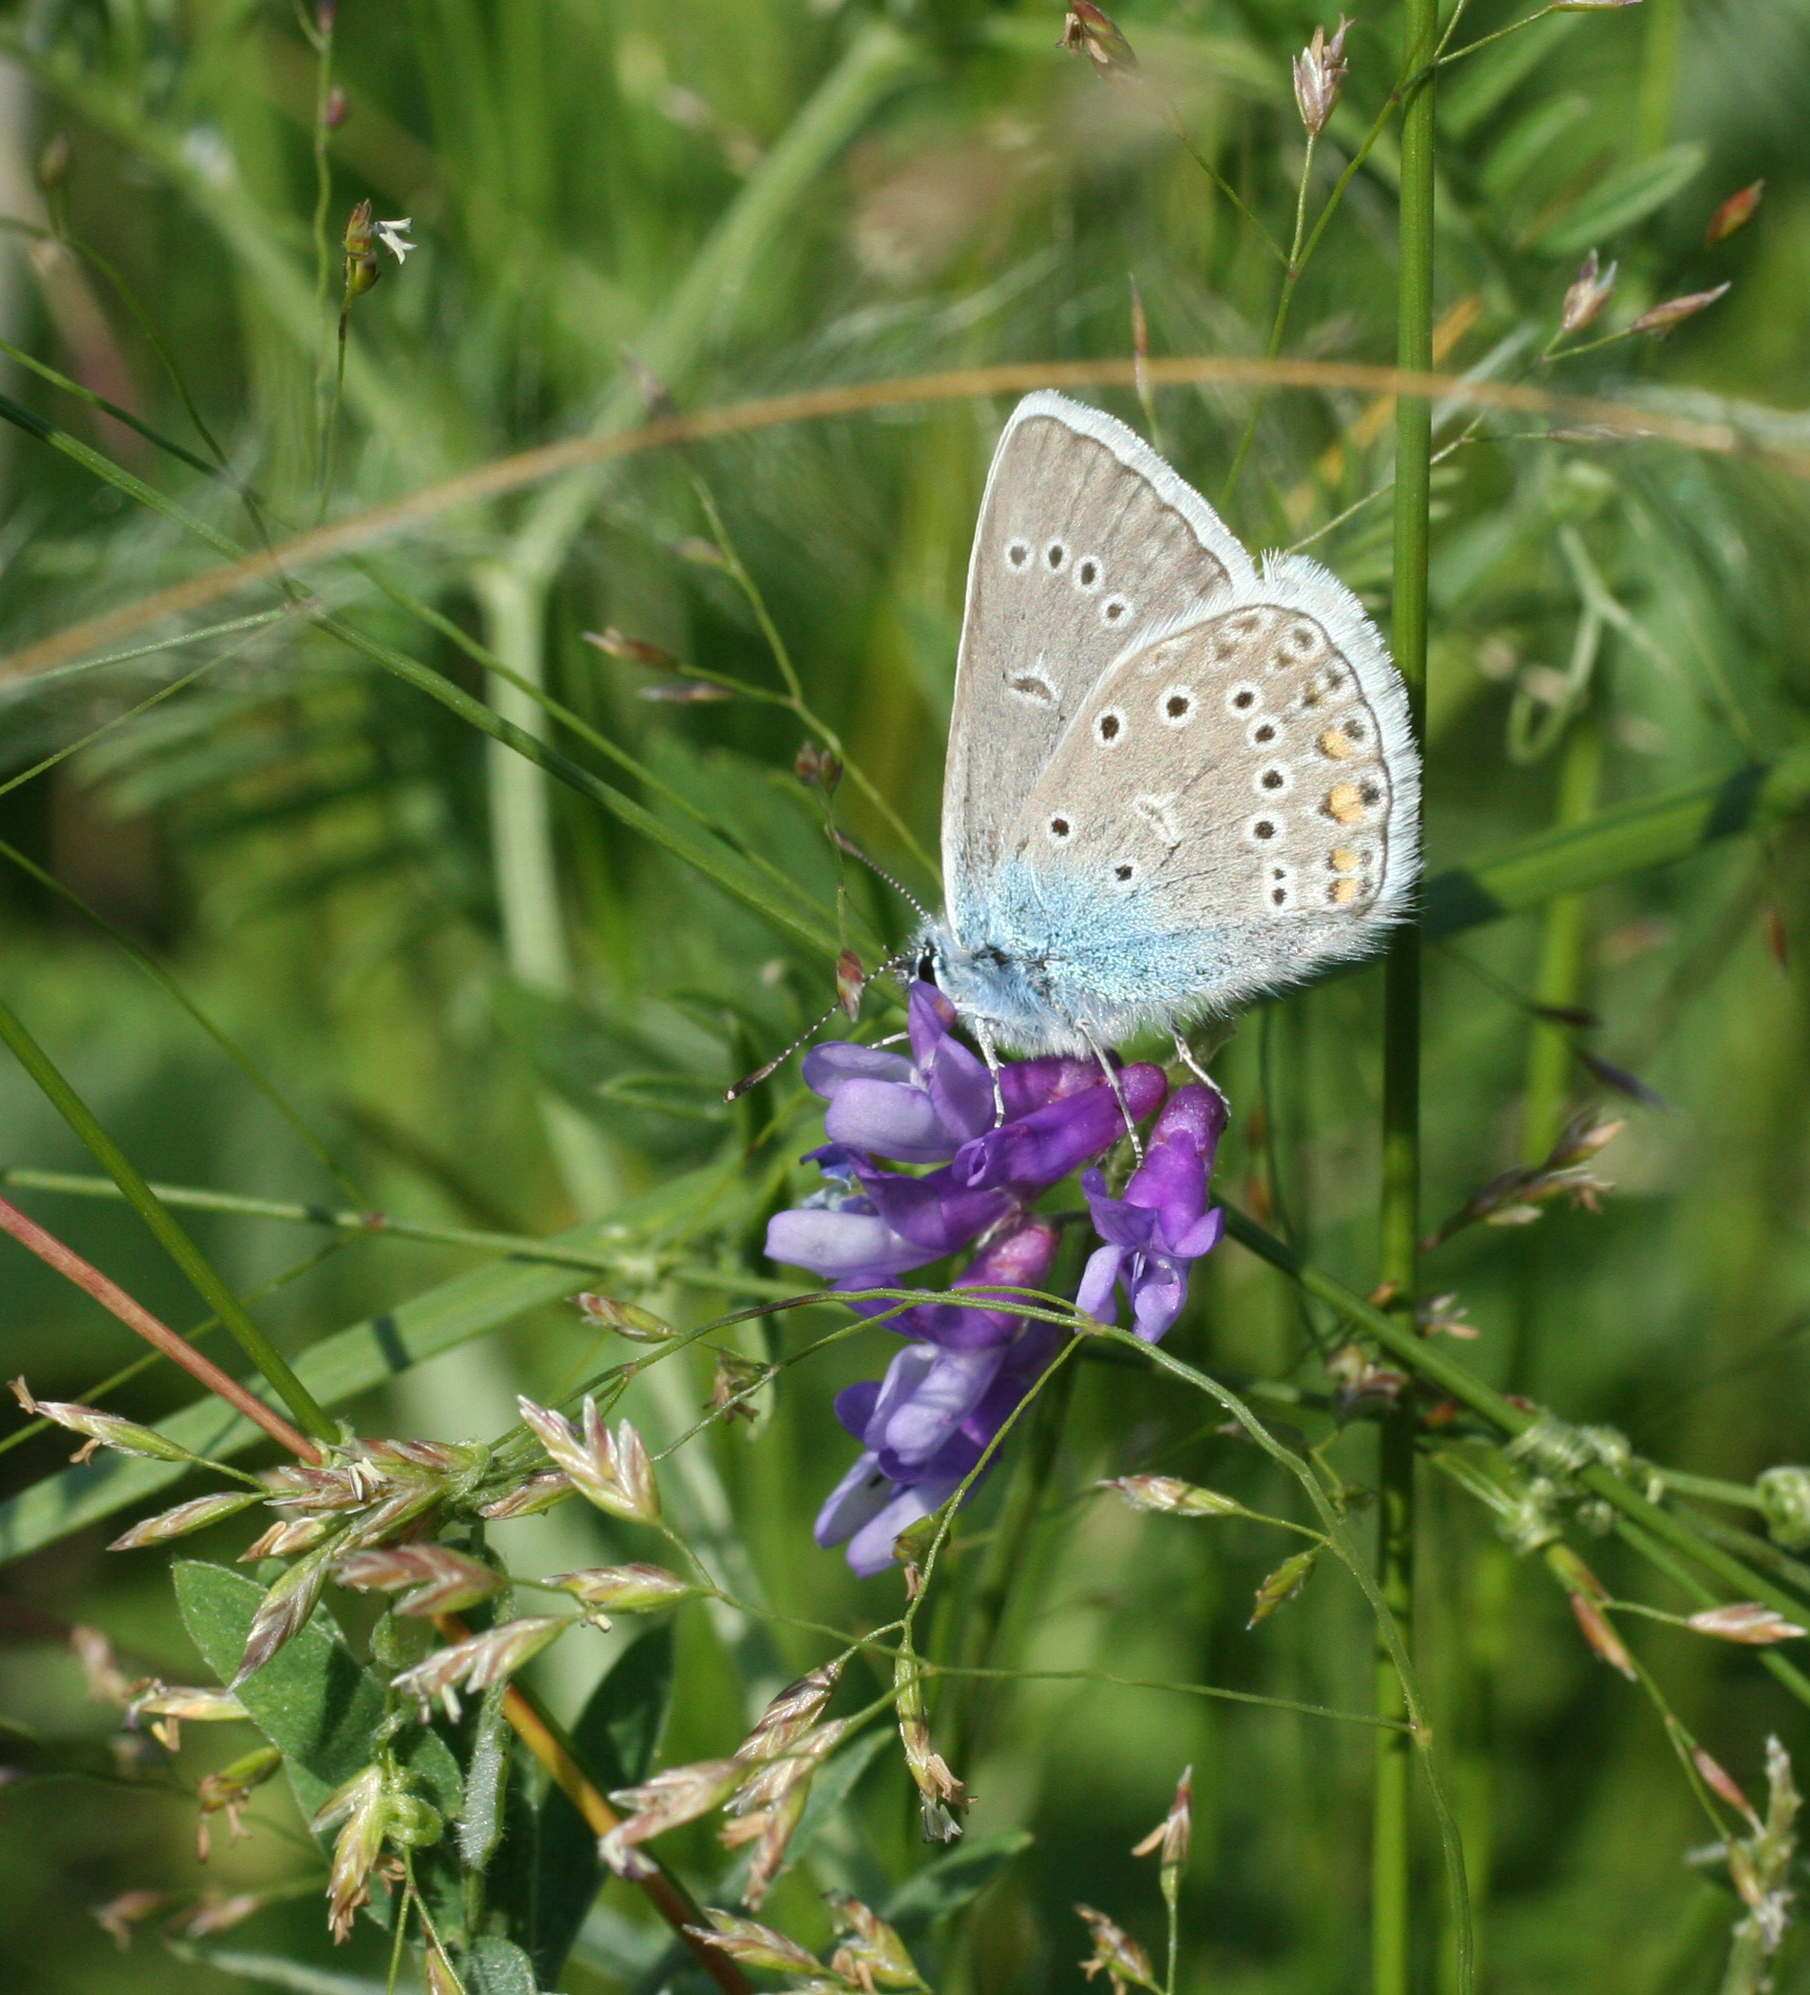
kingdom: Animalia
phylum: Arthropoda
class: Insecta
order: Lepidoptera
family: Lycaenidae
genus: Plebejus
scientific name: Plebejus amanda
